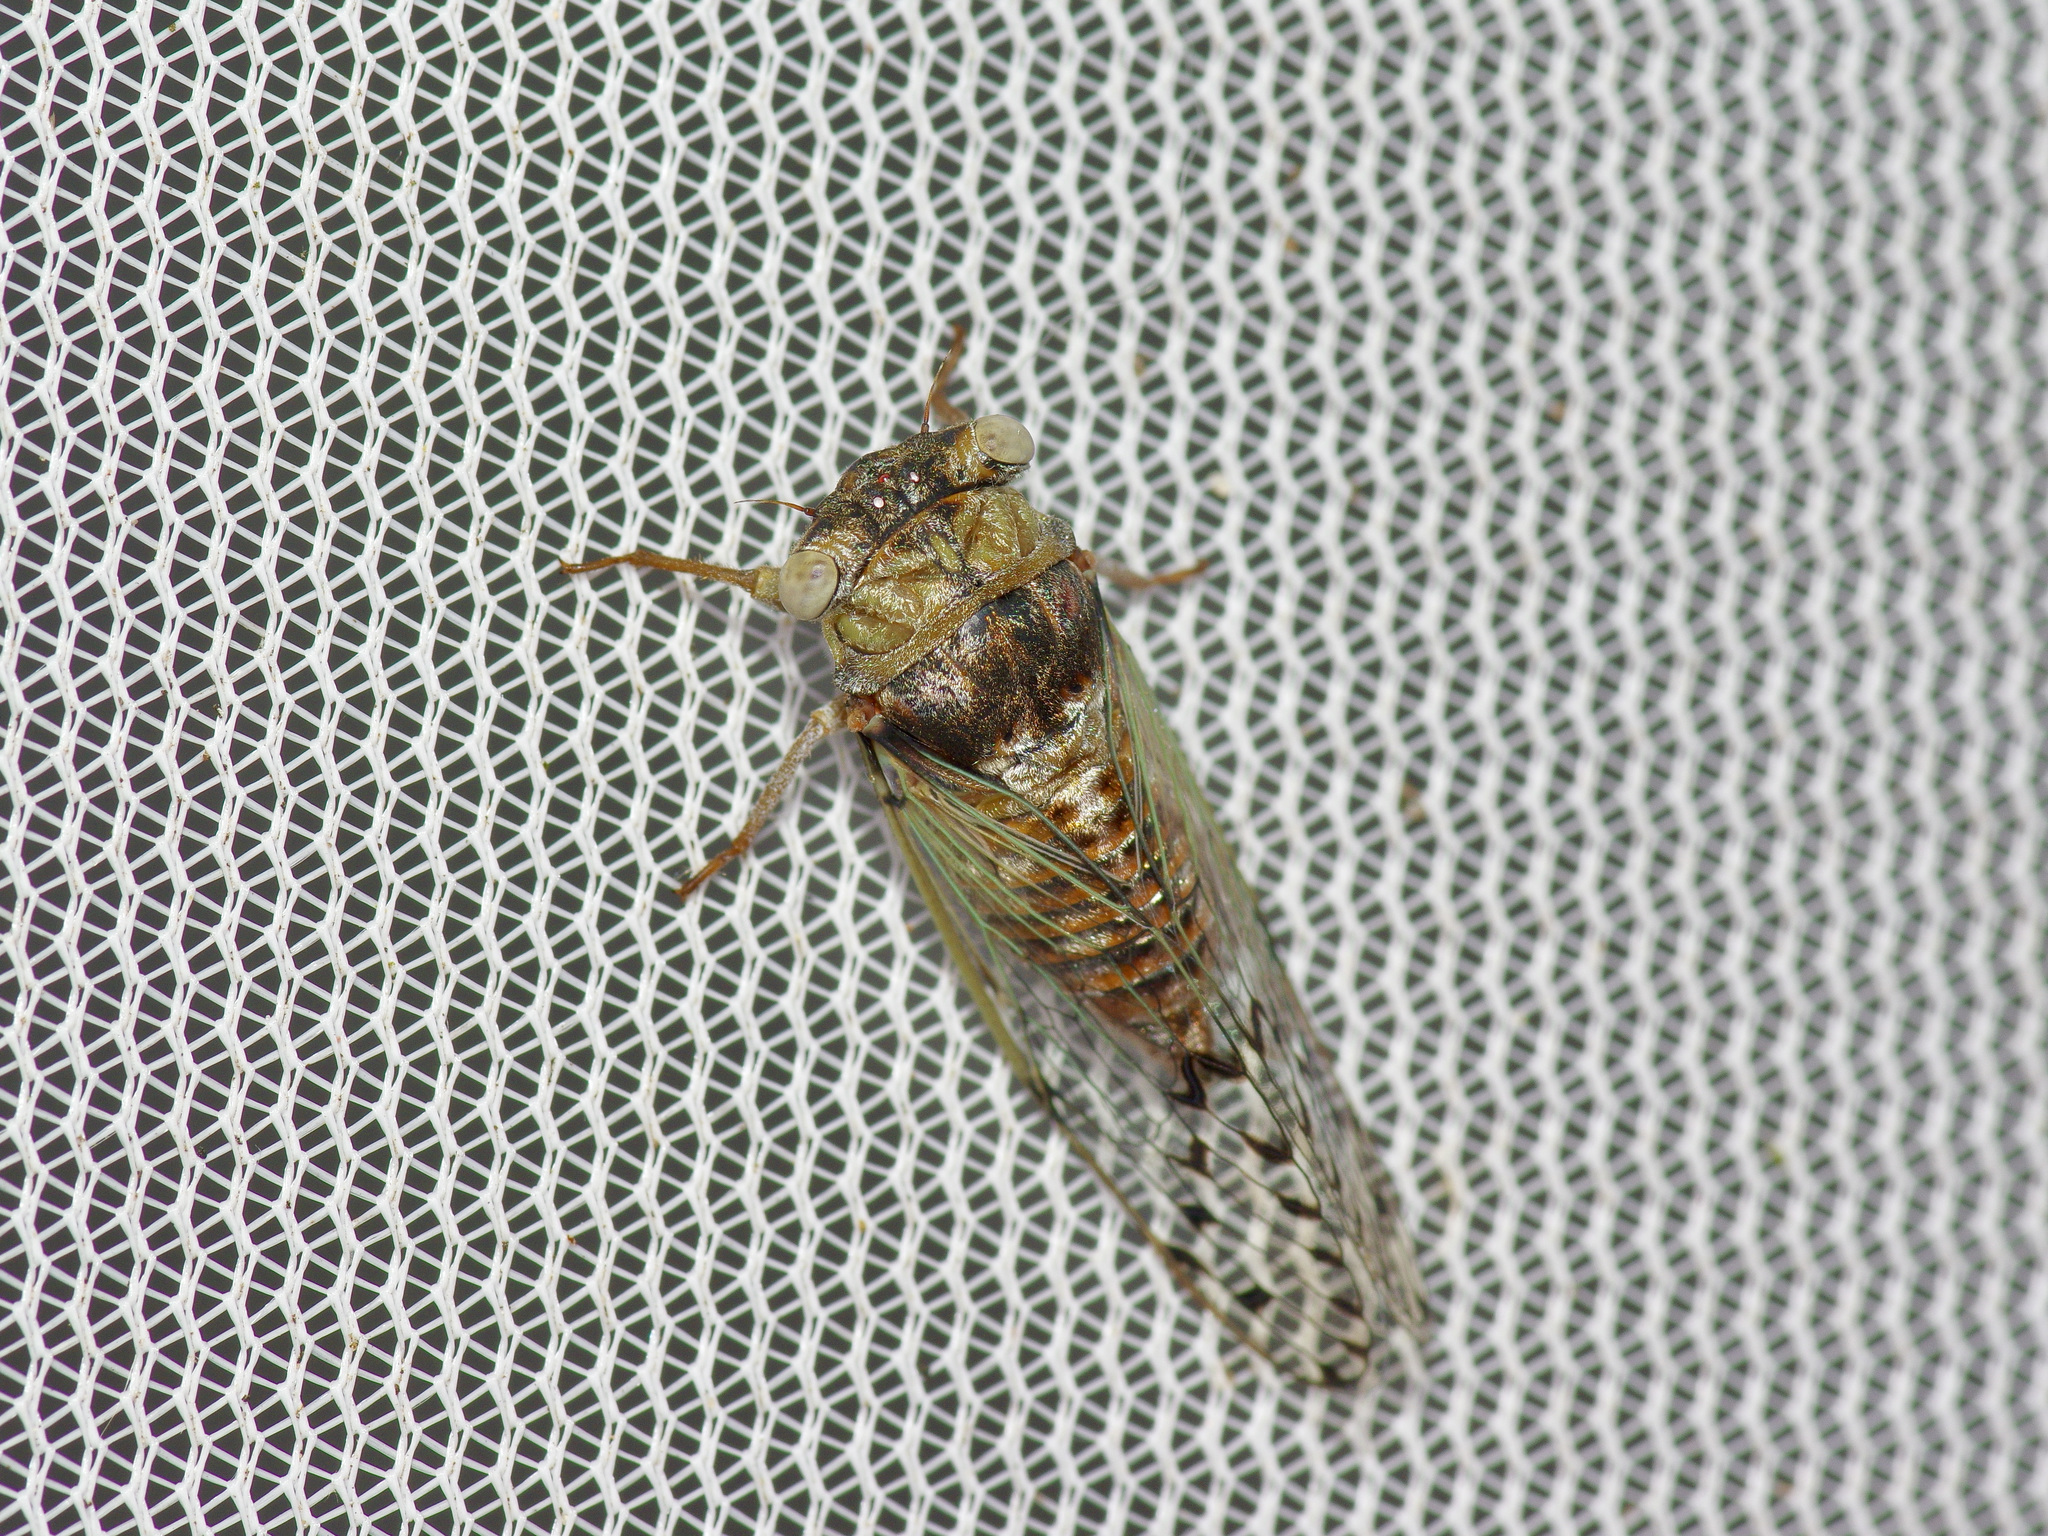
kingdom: Animalia
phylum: Arthropoda
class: Insecta
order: Hemiptera
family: Cicadidae
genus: Pacarina
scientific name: Pacarina puella
